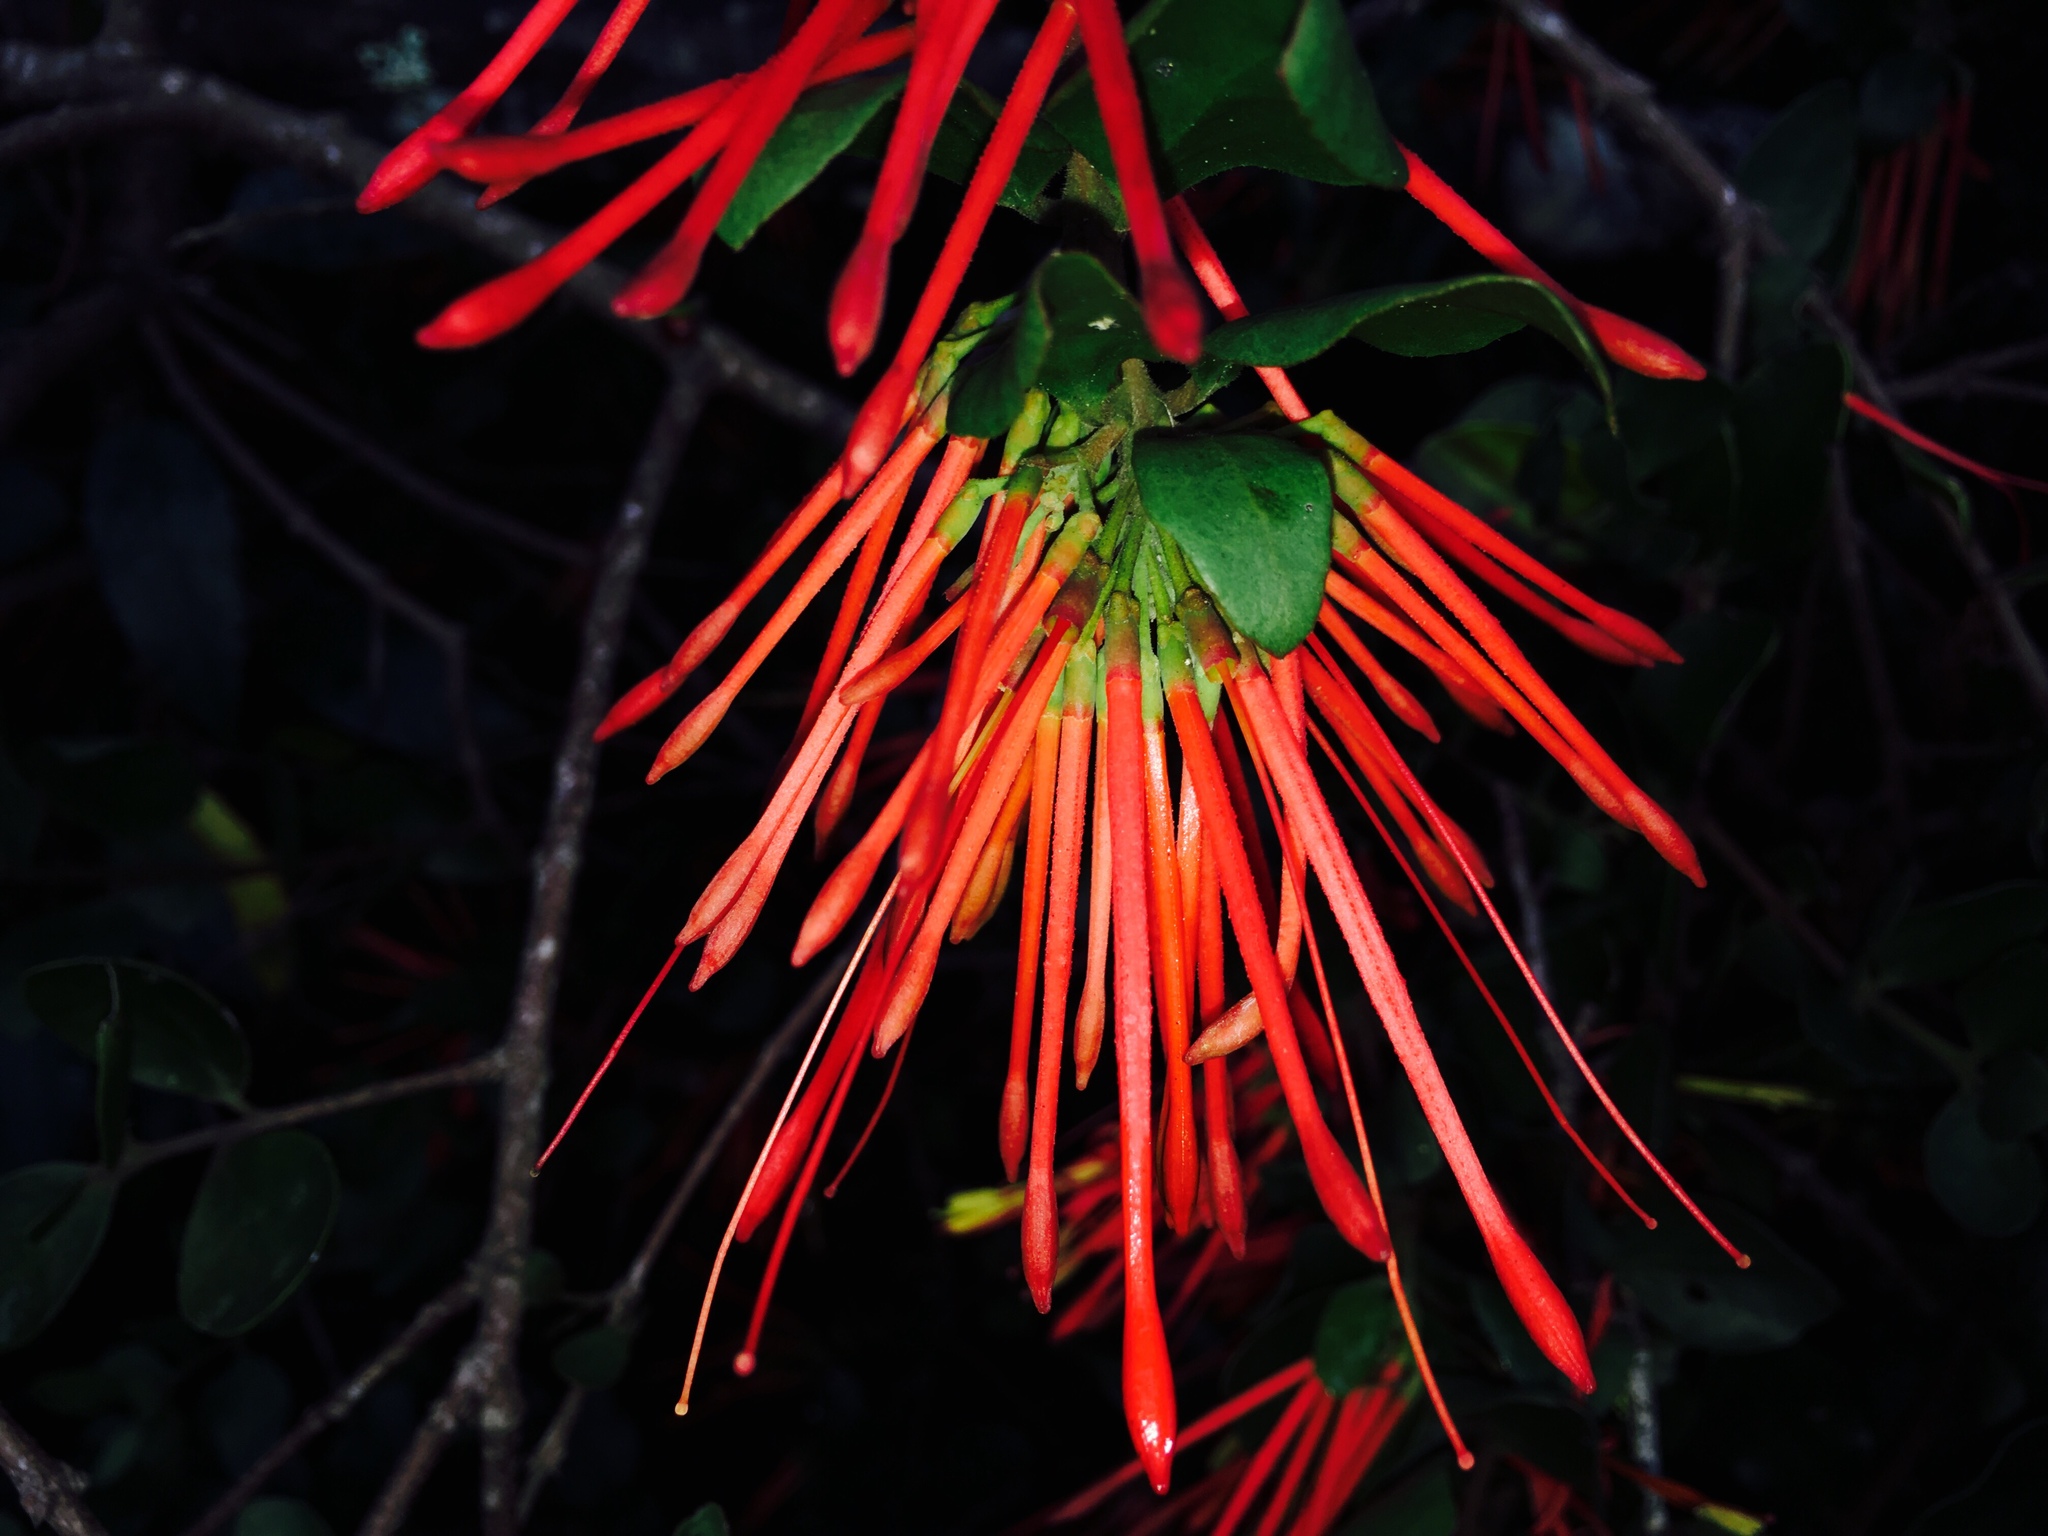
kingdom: Plantae
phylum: Tracheophyta
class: Magnoliopsida
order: Santalales
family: Loranthaceae
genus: Tristerix
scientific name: Tristerix corymbosus
